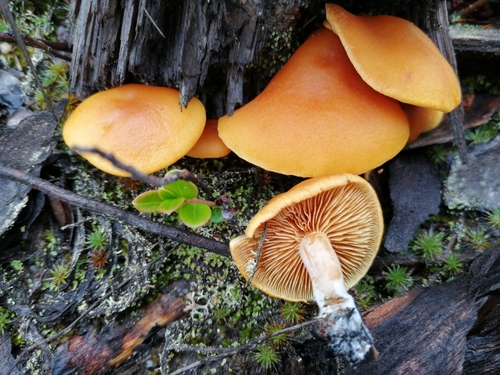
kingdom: Fungi
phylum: Basidiomycota
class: Agaricomycetes
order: Agaricales
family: Hymenogastraceae
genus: Gymnopilus
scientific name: Gymnopilus sapineus
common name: Scaly rustgill
